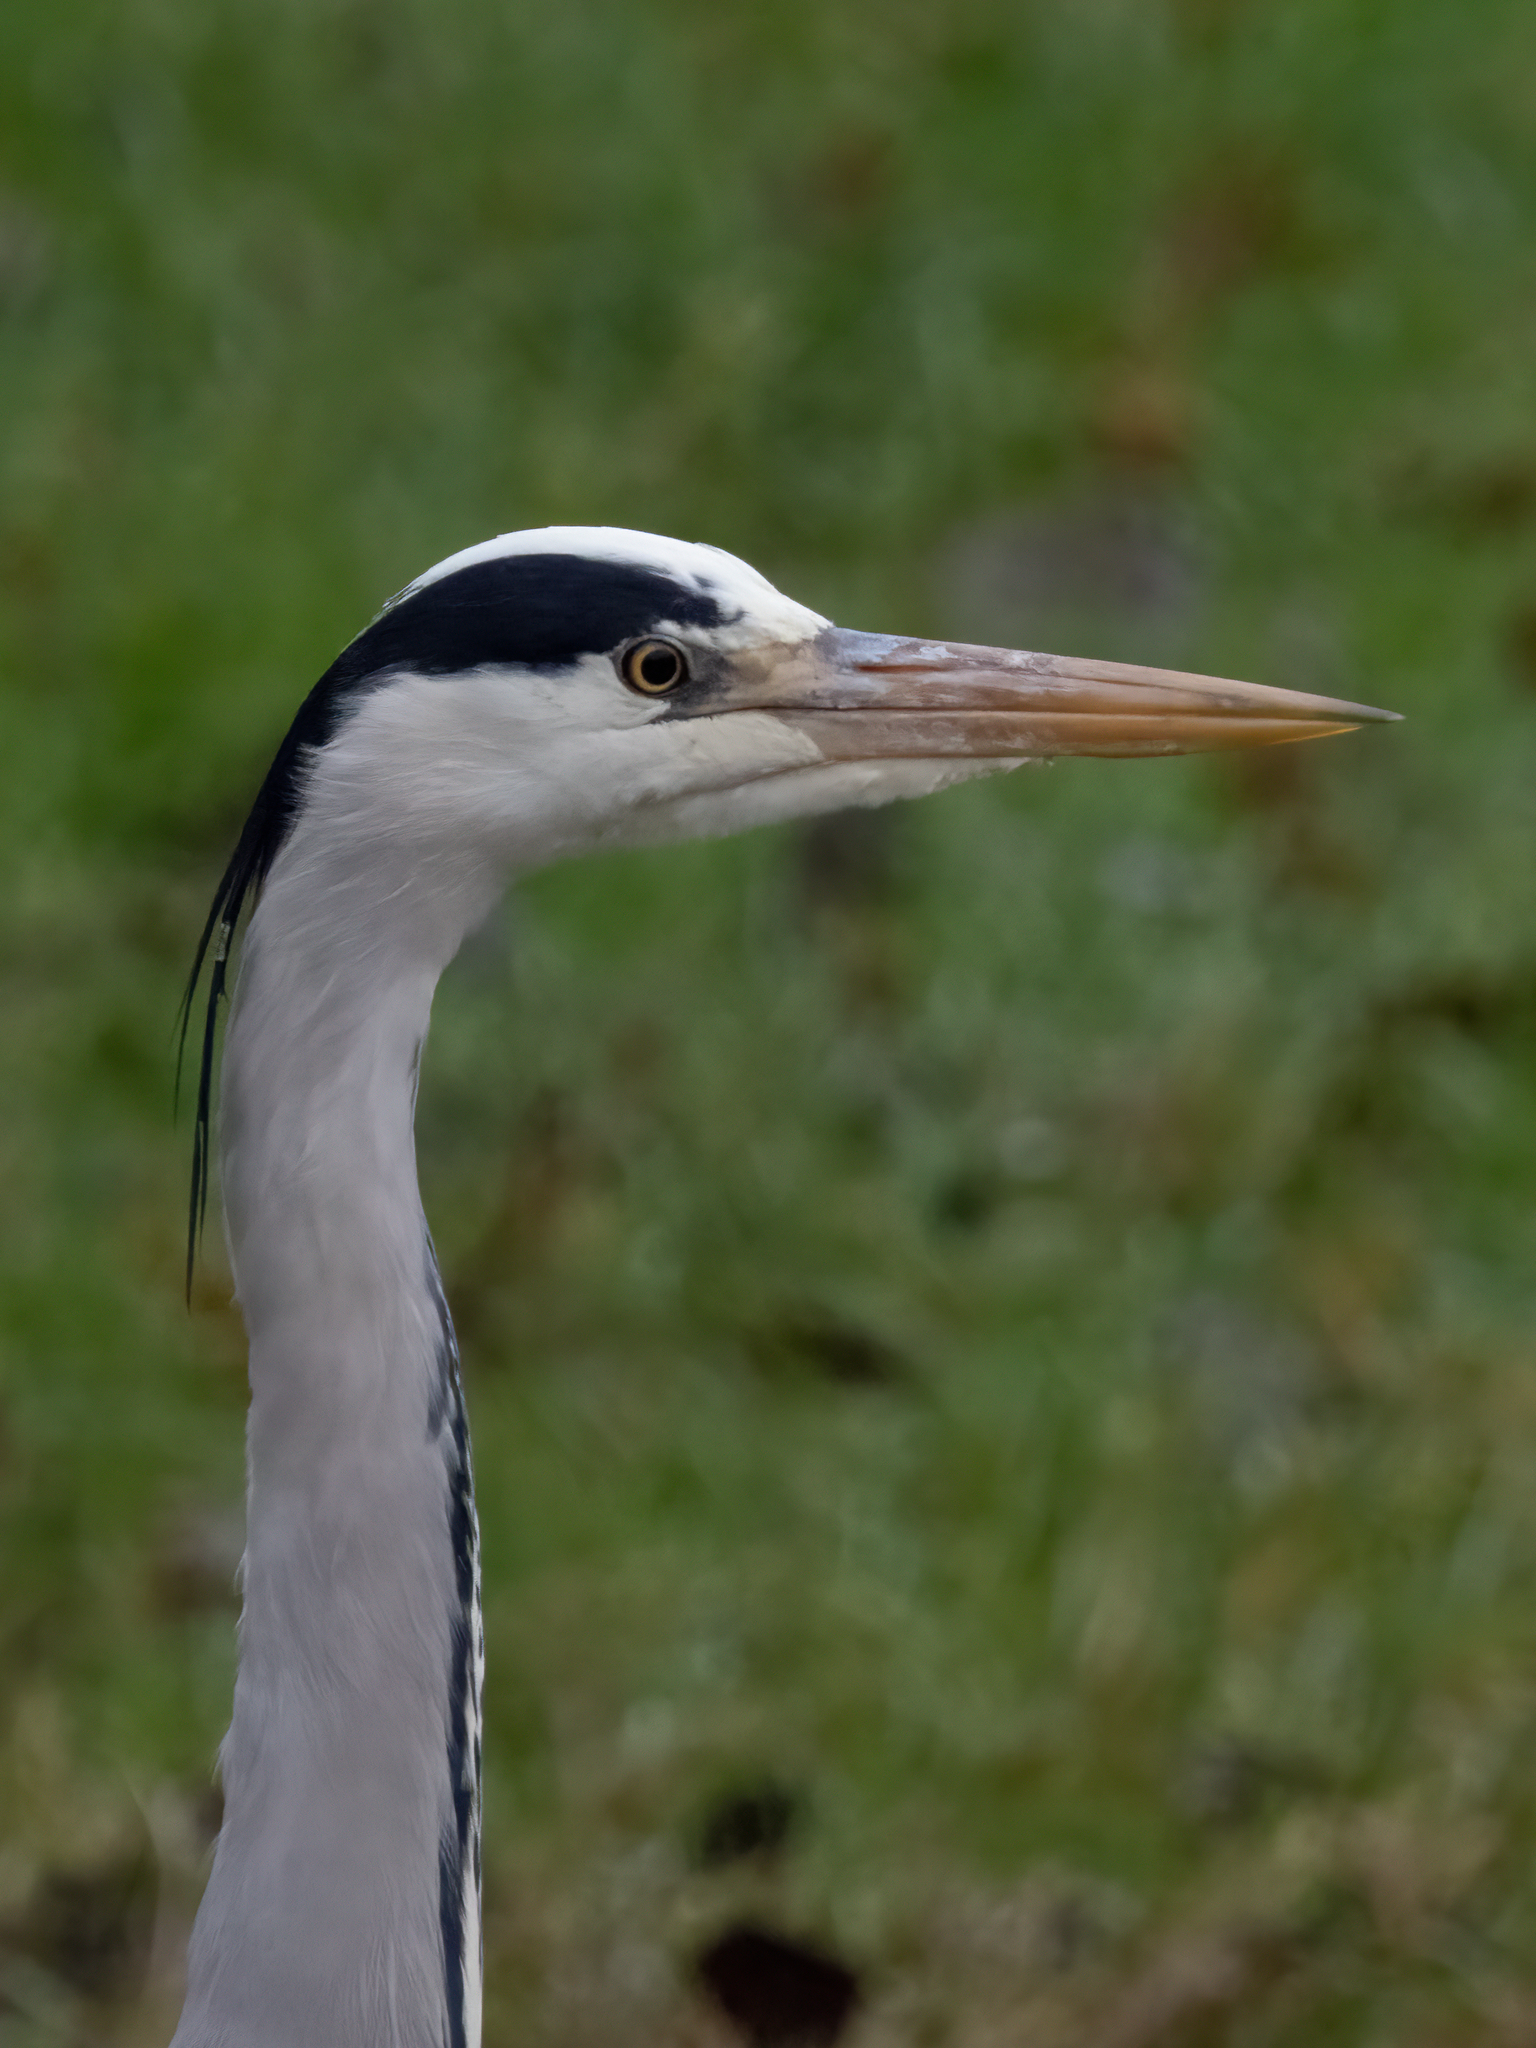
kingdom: Animalia
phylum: Chordata
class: Aves
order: Pelecaniformes
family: Ardeidae
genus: Ardea
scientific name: Ardea cinerea
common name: Grey heron
